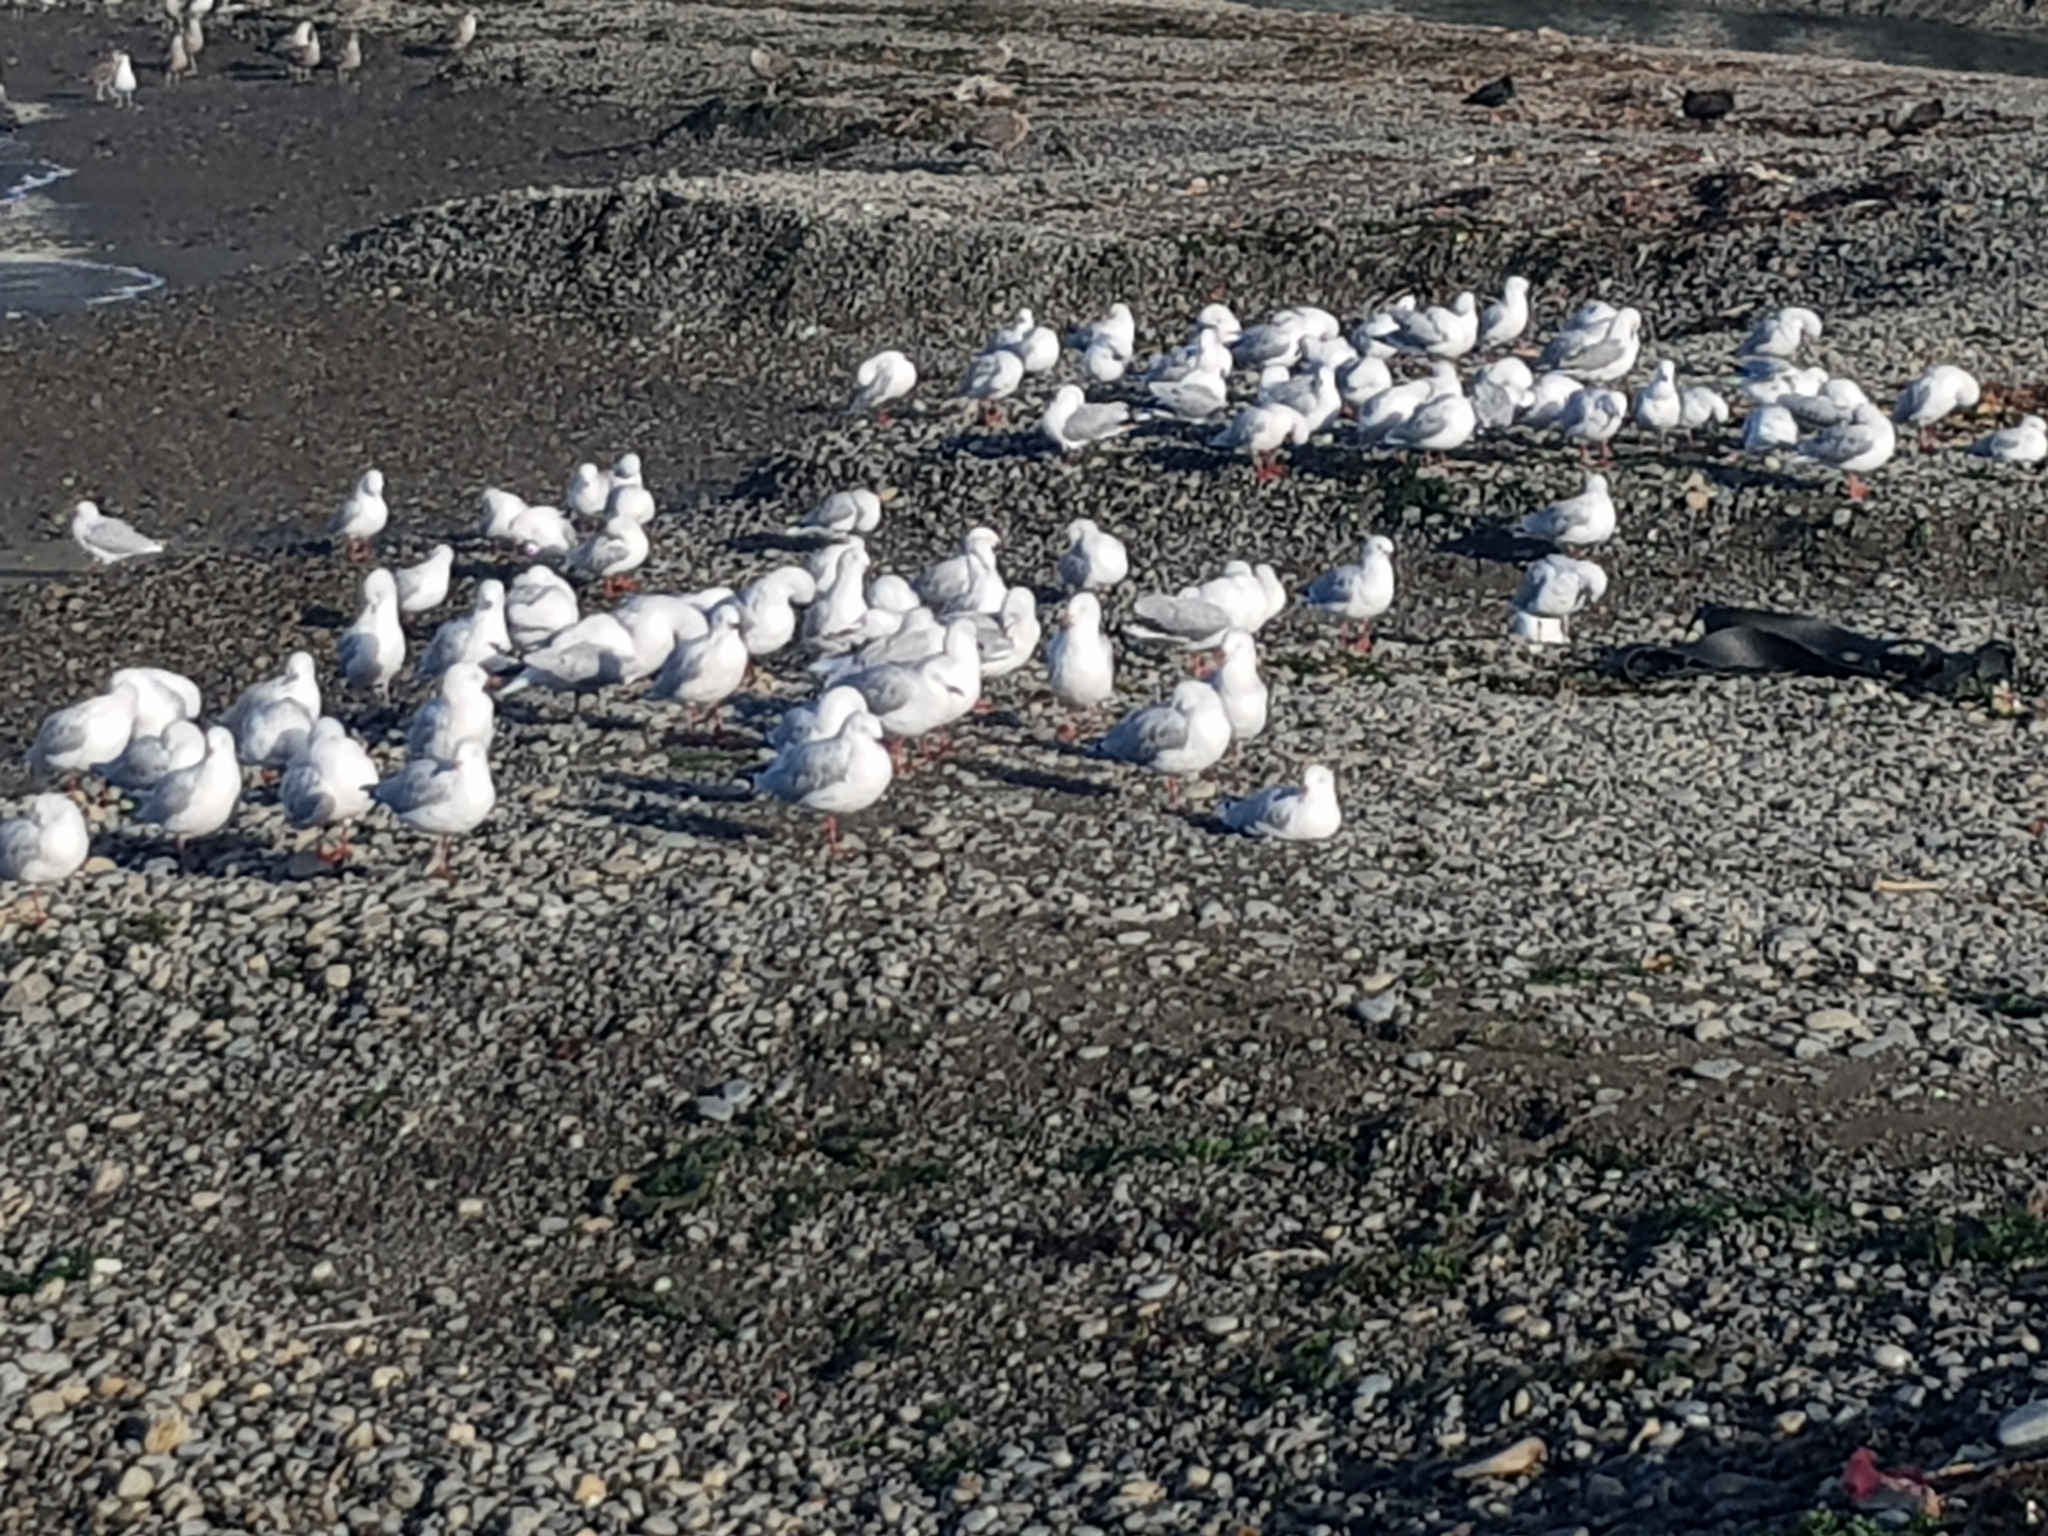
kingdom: Animalia
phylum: Chordata
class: Aves
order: Charadriiformes
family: Laridae
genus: Chroicocephalus
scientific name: Chroicocephalus novaehollandiae
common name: Silver gull
